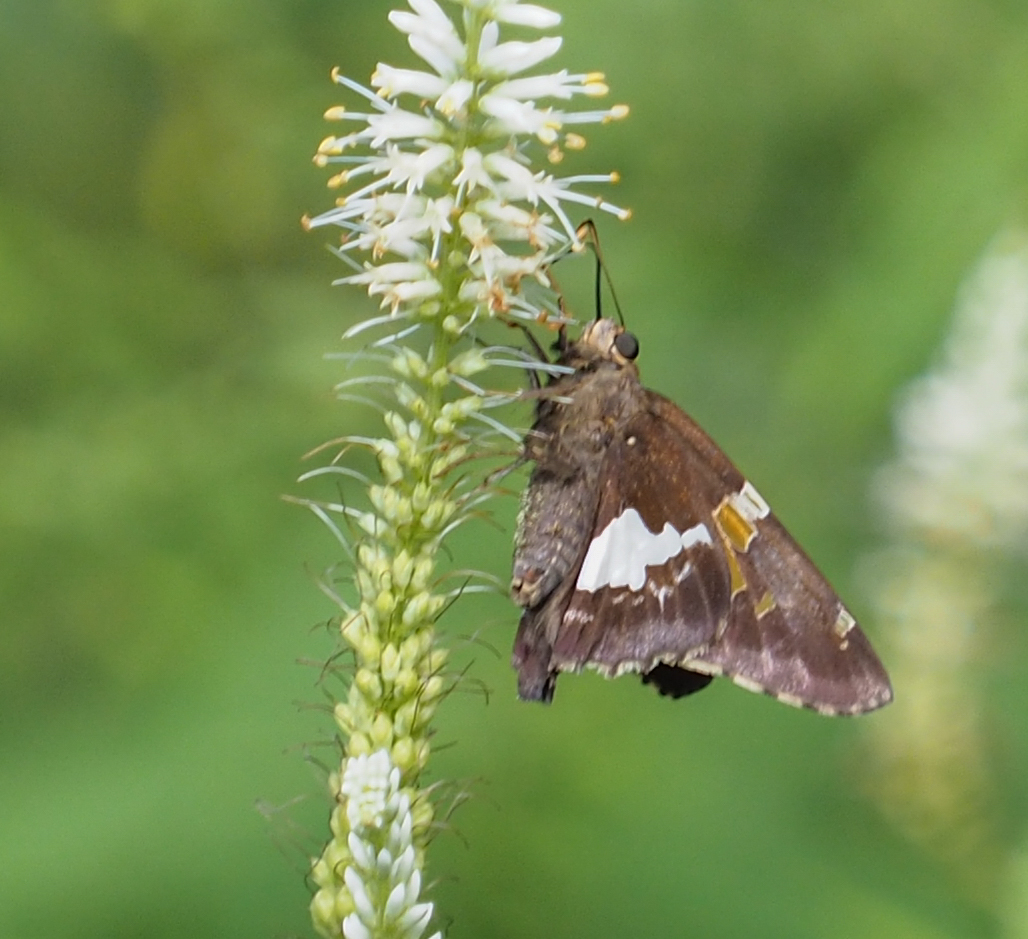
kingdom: Animalia
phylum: Arthropoda
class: Insecta
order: Lepidoptera
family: Hesperiidae
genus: Epargyreus
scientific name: Epargyreus clarus
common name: Silver-spotted skipper
